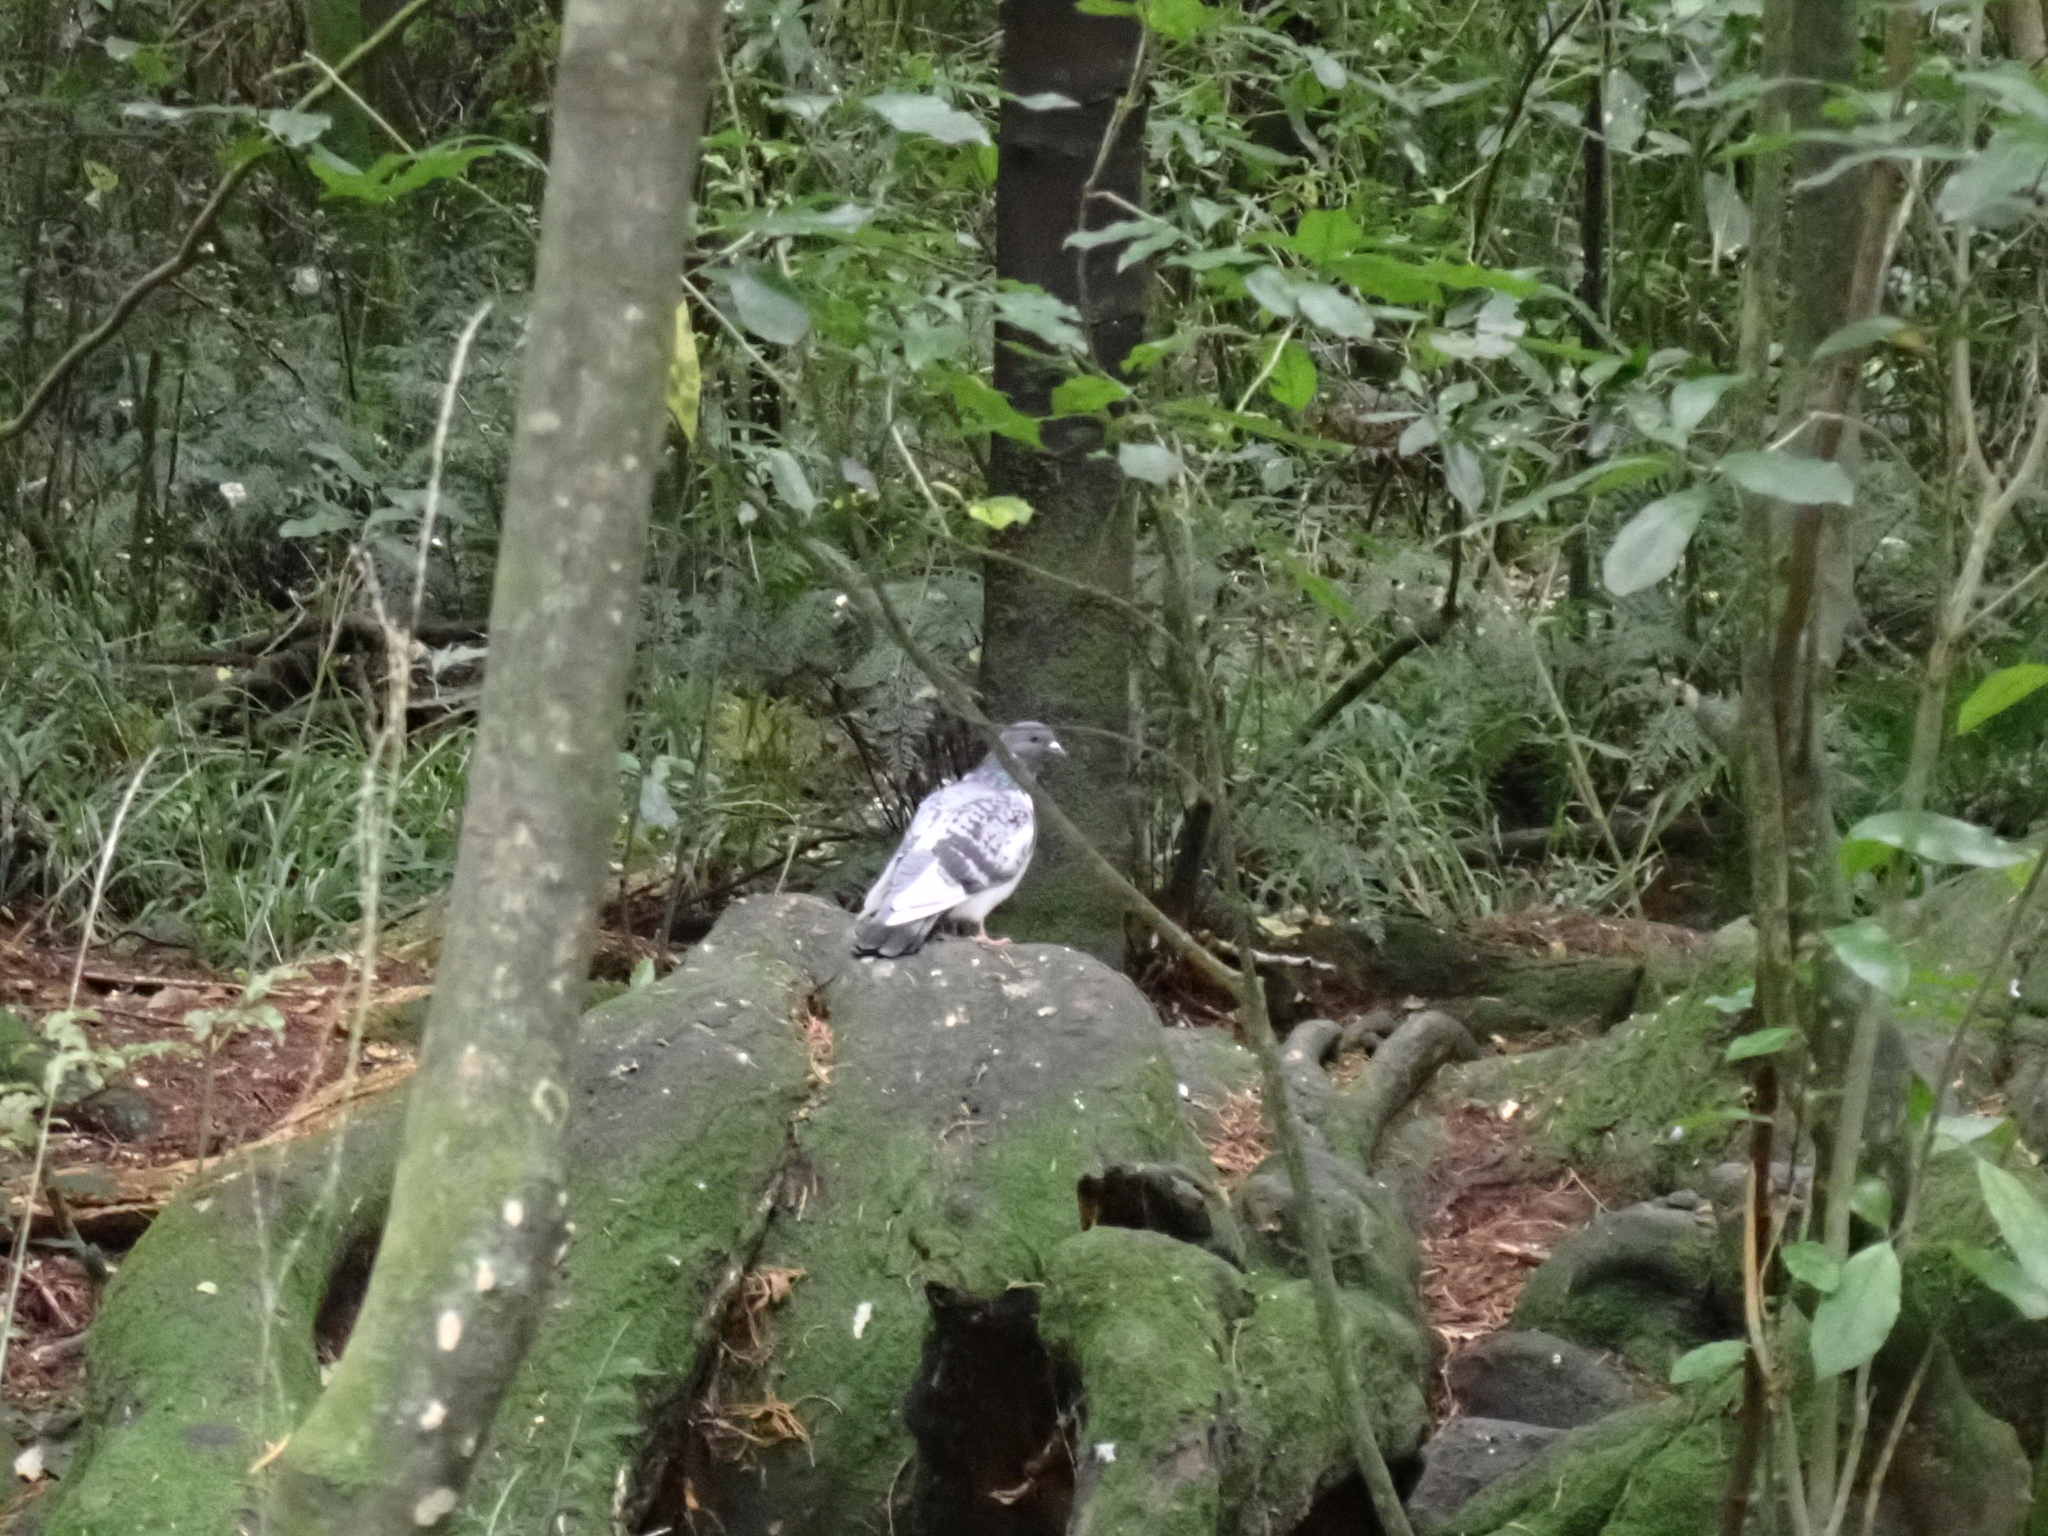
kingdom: Animalia
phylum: Chordata
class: Aves
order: Columbiformes
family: Columbidae
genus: Columba
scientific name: Columba livia
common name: Rock pigeon
